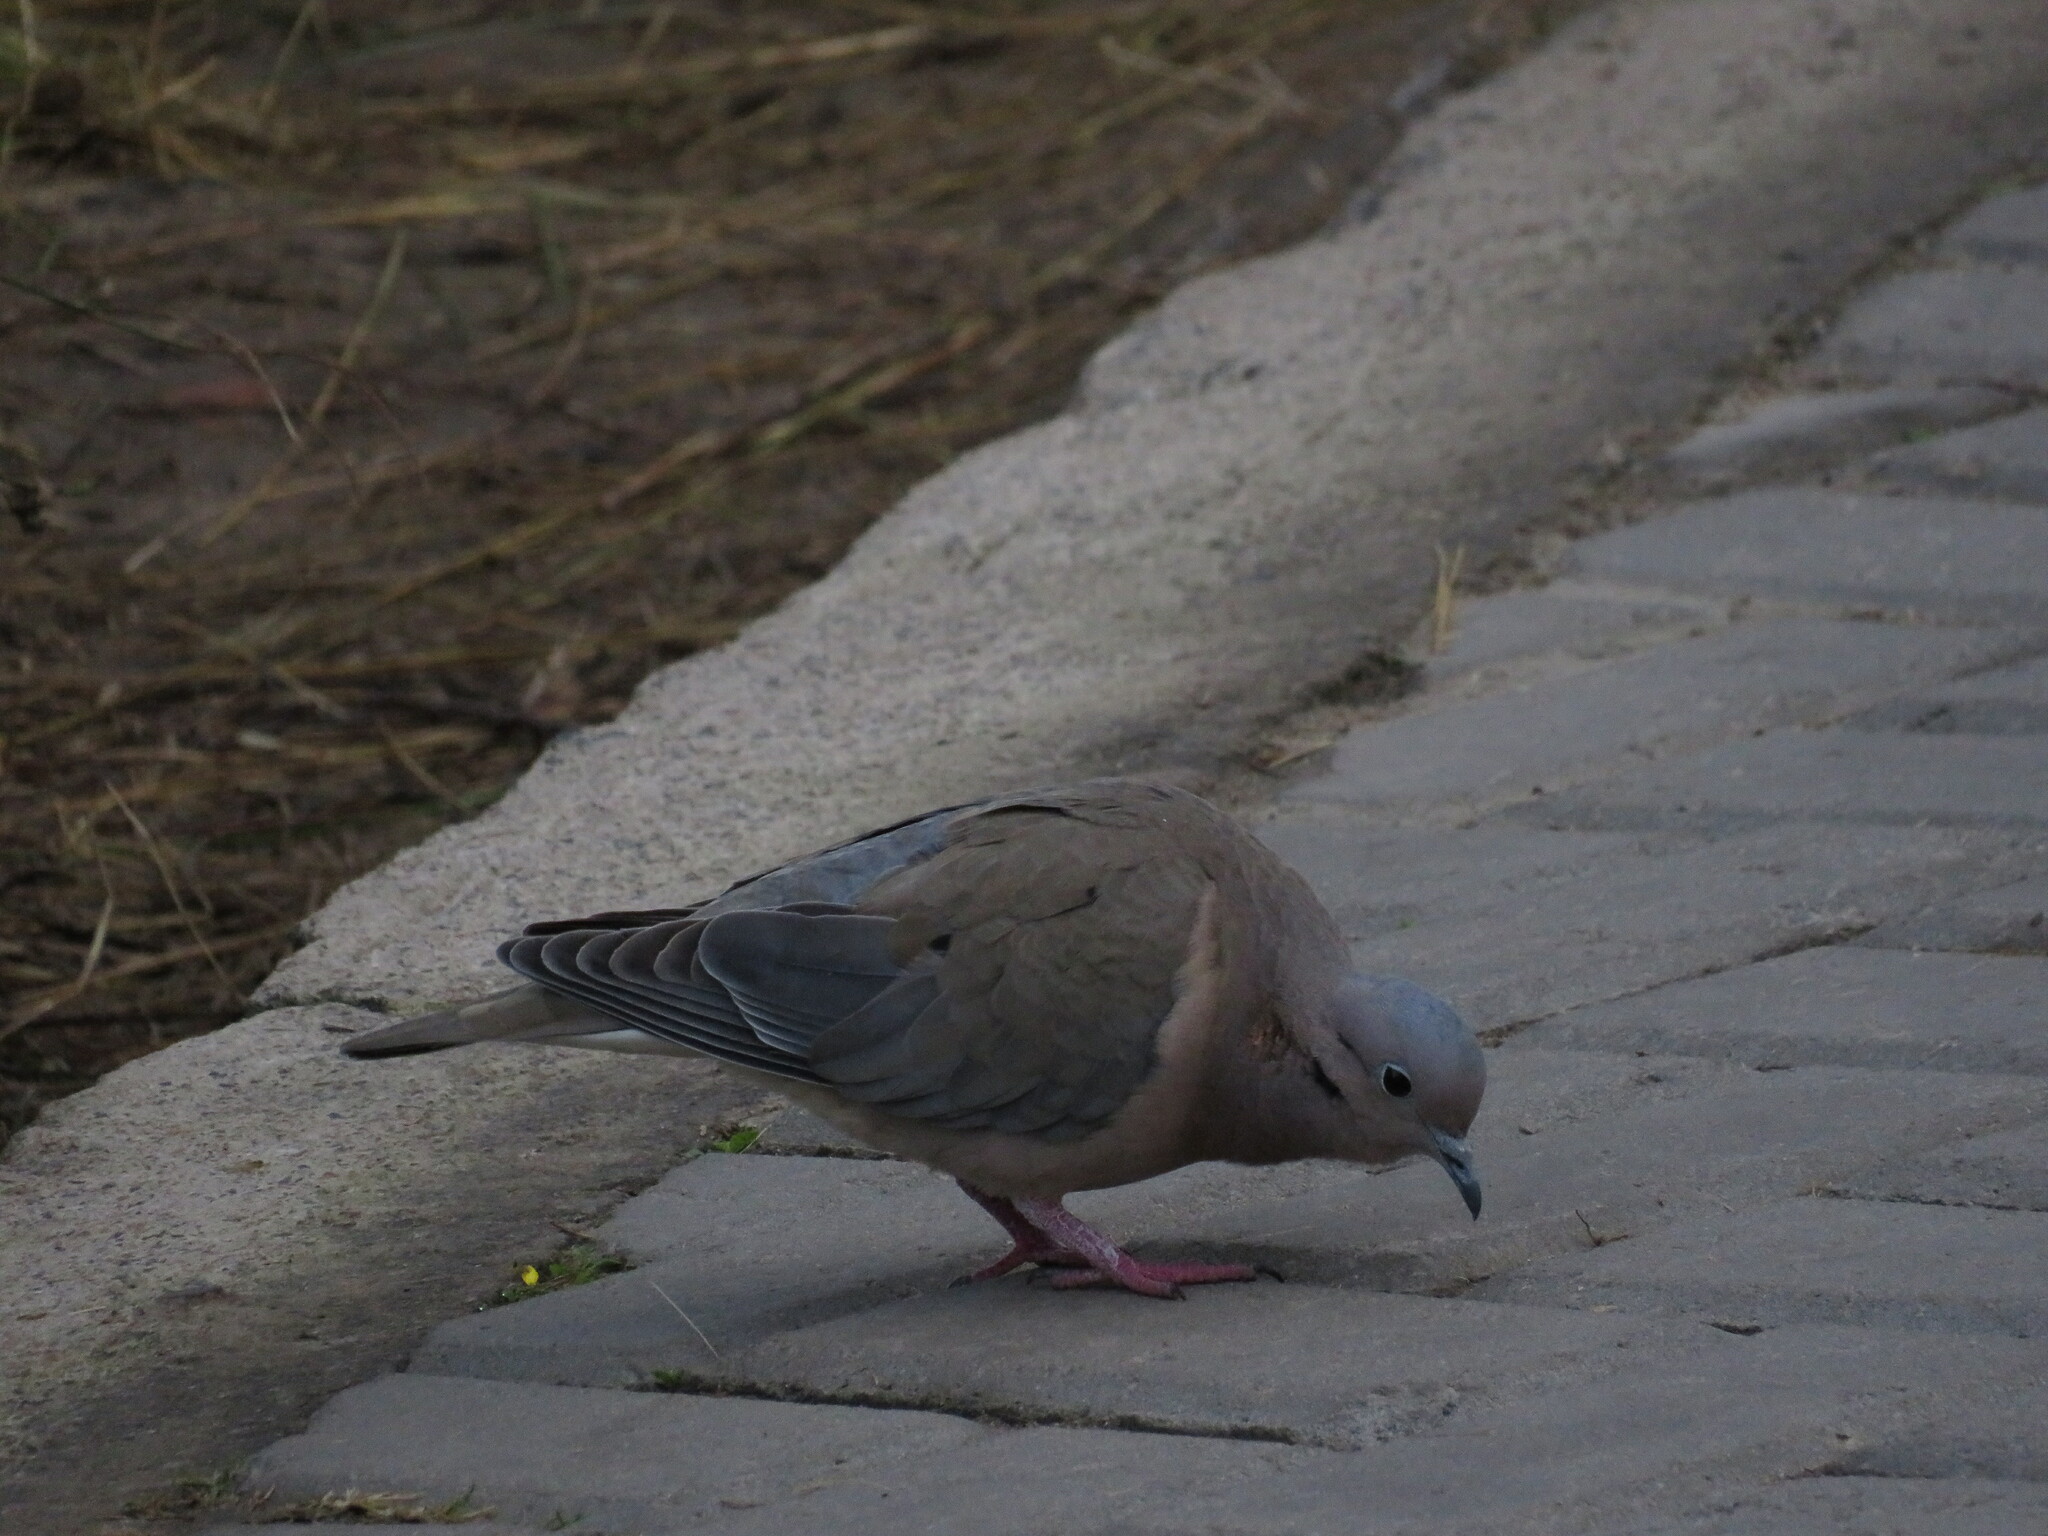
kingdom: Animalia
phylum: Chordata
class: Aves
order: Columbiformes
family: Columbidae
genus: Zenaida
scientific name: Zenaida auriculata
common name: Eared dove
